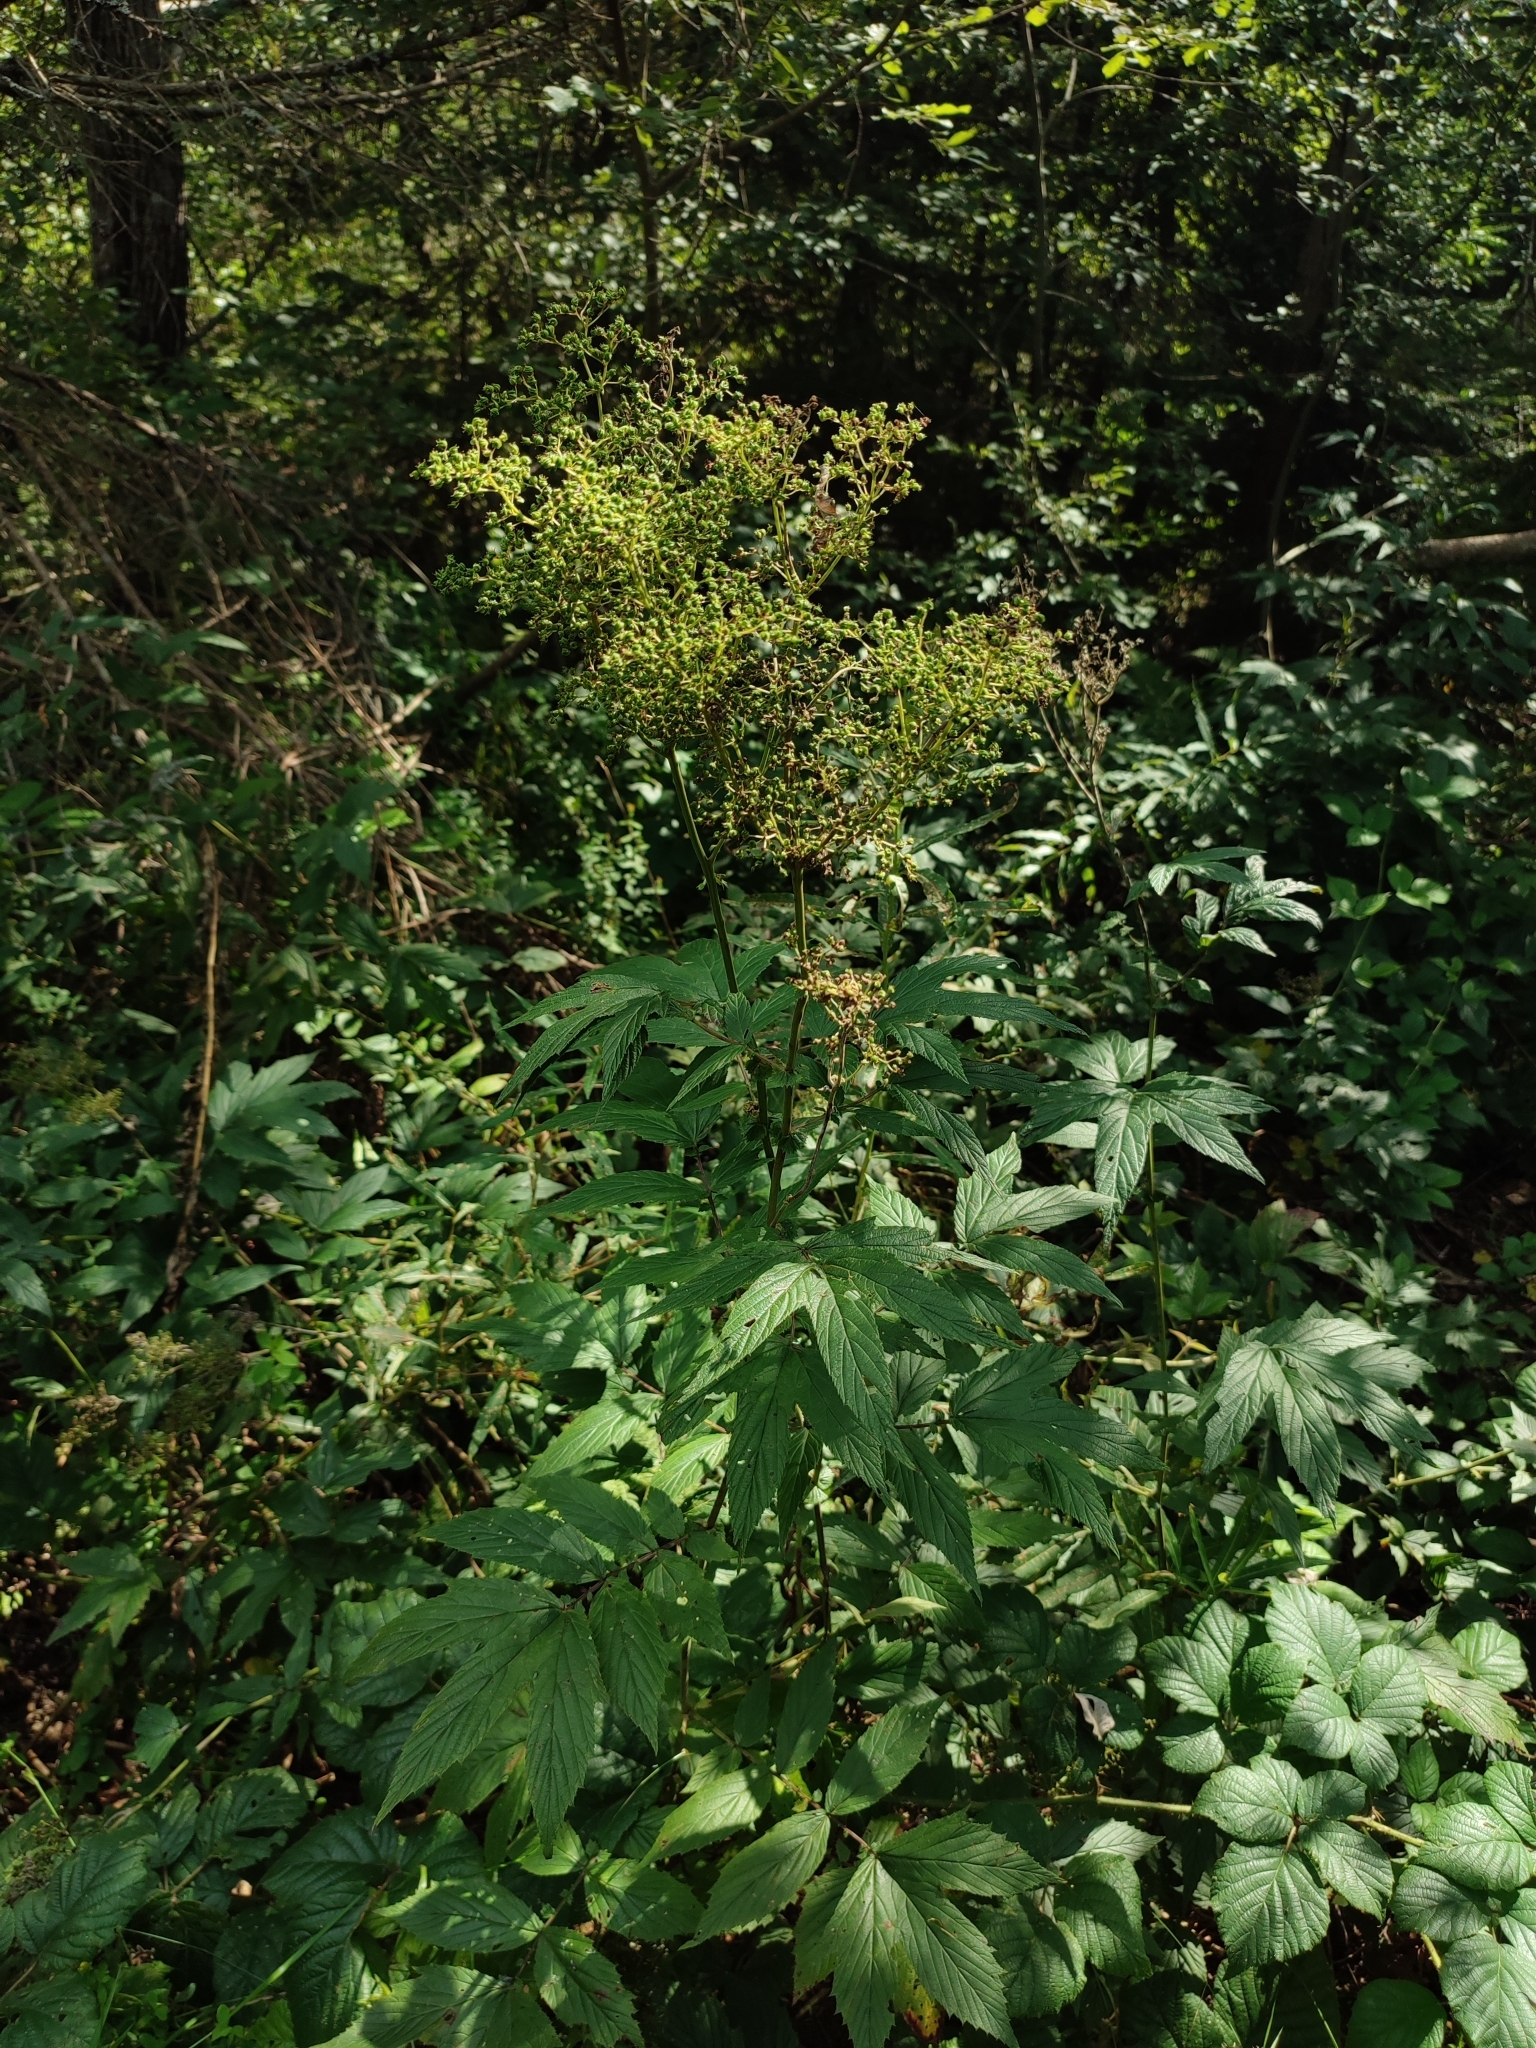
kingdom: Plantae
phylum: Tracheophyta
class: Magnoliopsida
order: Rosales
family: Rosaceae
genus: Filipendula
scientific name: Filipendula ulmaria
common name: Meadowsweet
